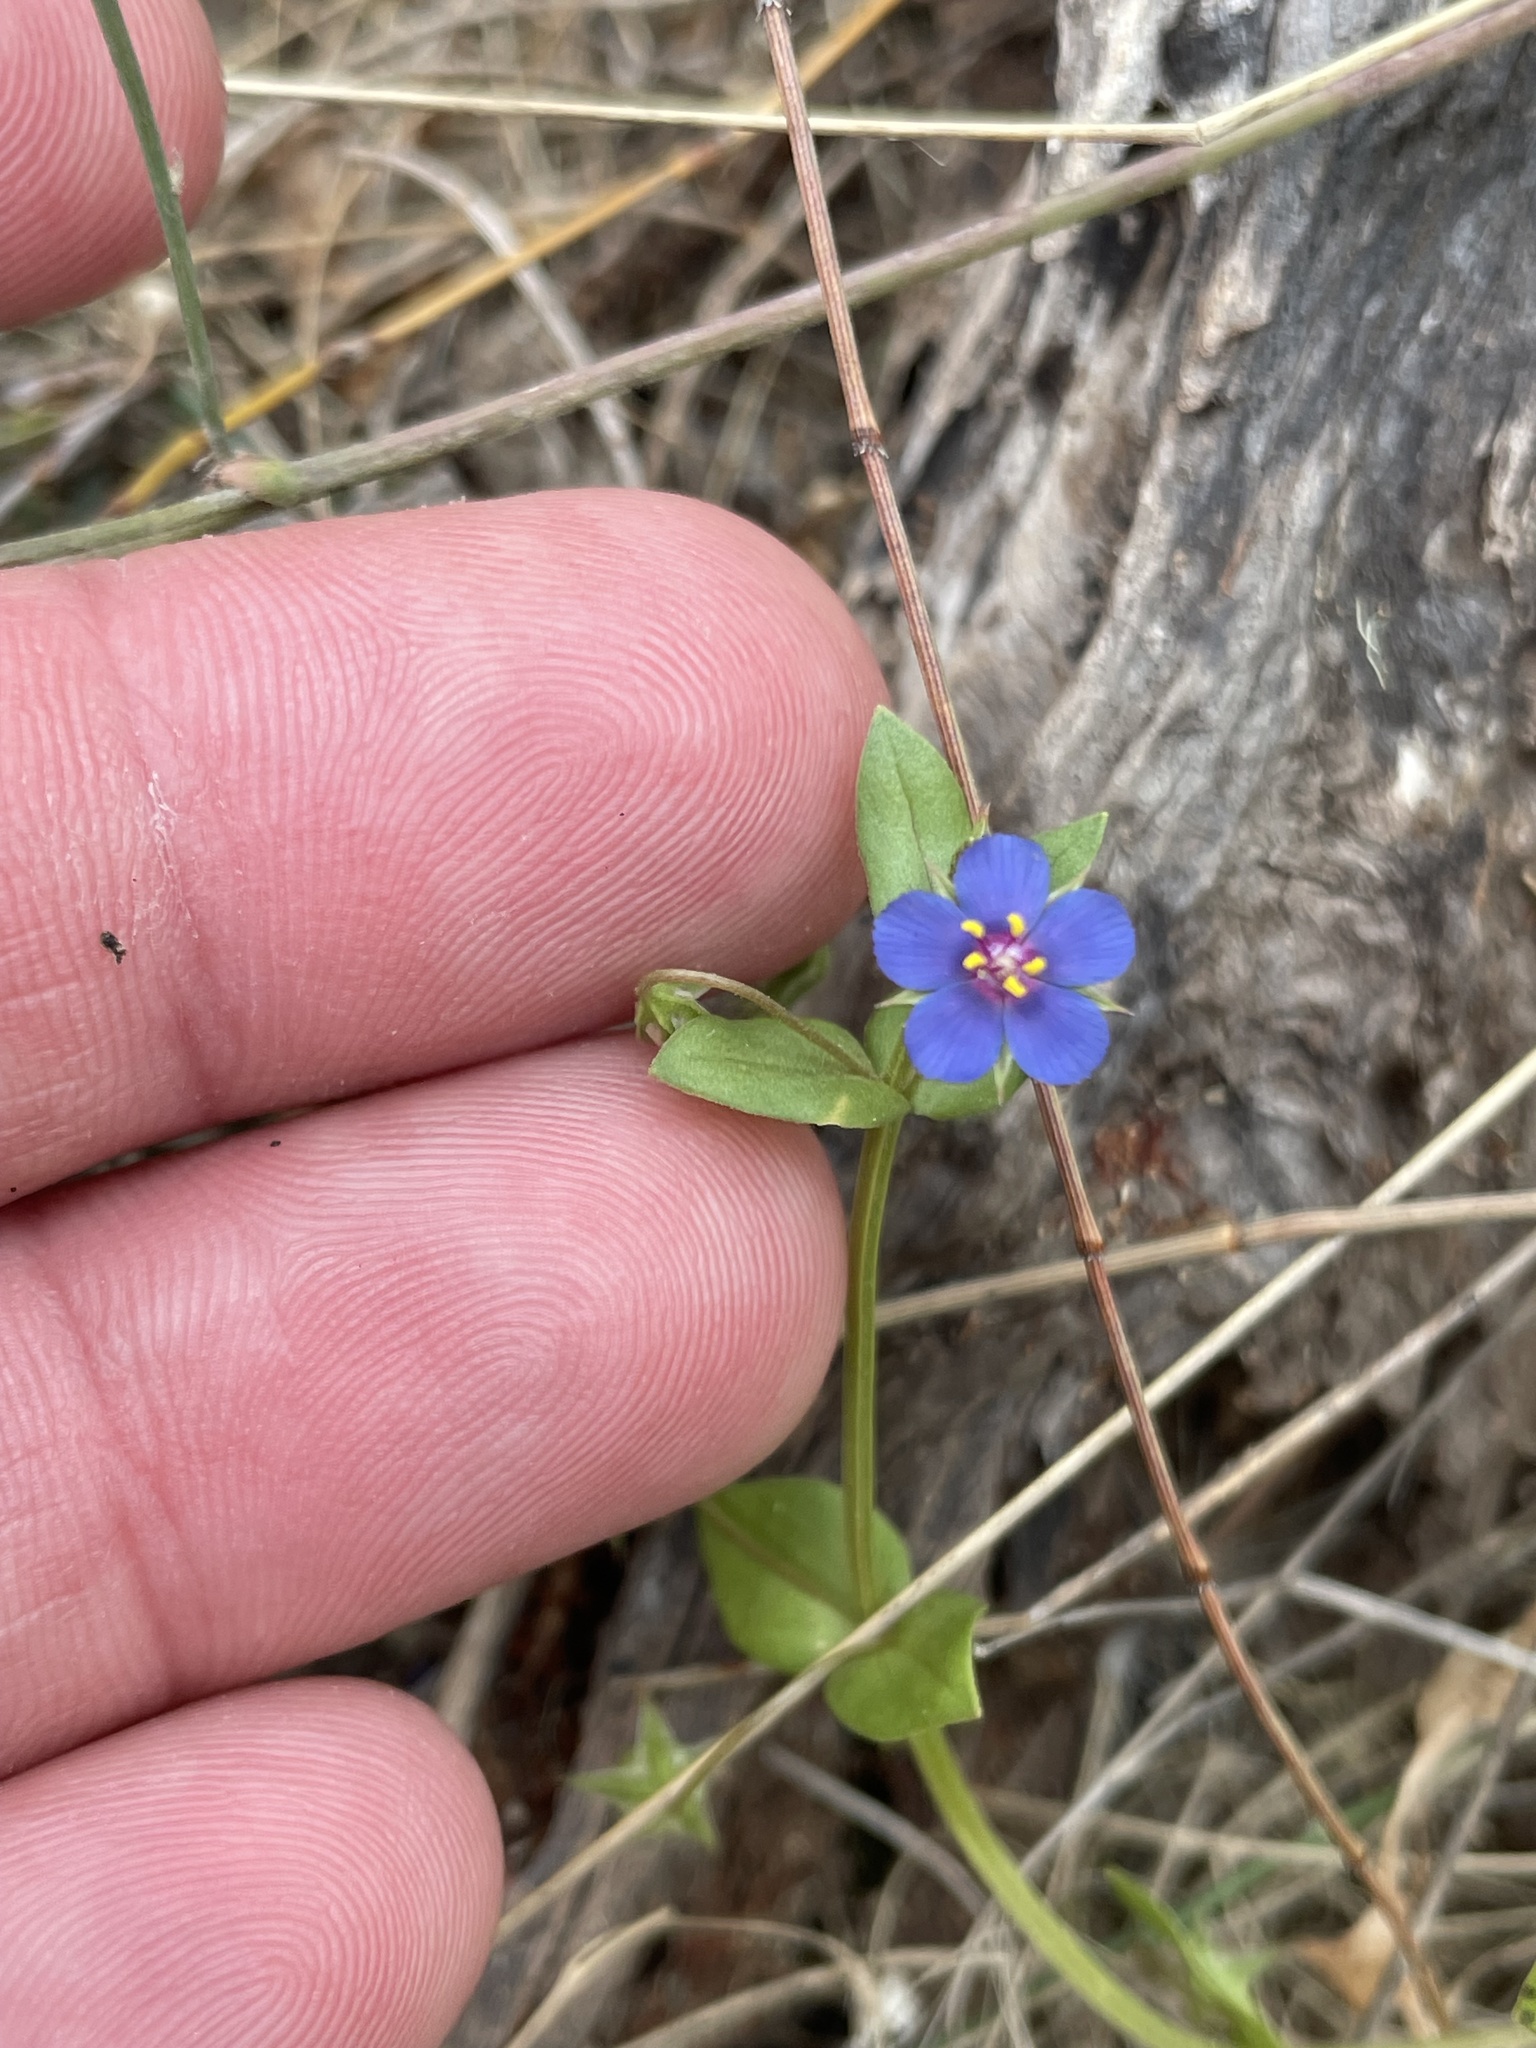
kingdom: Plantae
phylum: Tracheophyta
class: Magnoliopsida
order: Ericales
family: Primulaceae
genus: Lysimachia
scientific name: Lysimachia loeflingii
